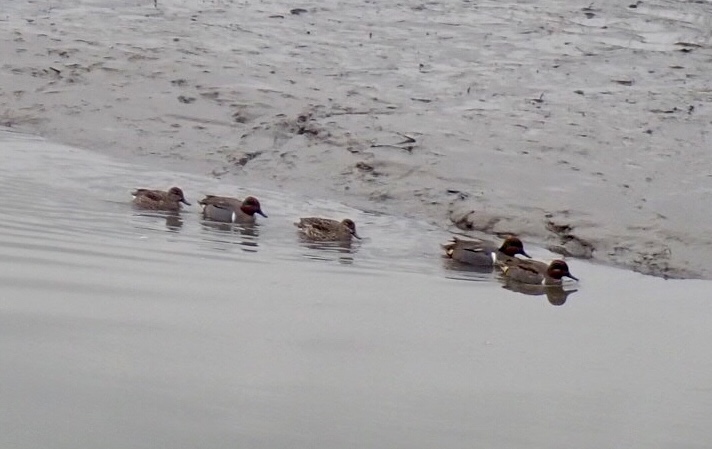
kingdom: Animalia
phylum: Chordata
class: Aves
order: Anseriformes
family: Anatidae
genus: Anas
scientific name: Anas crecca
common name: Eurasian teal
